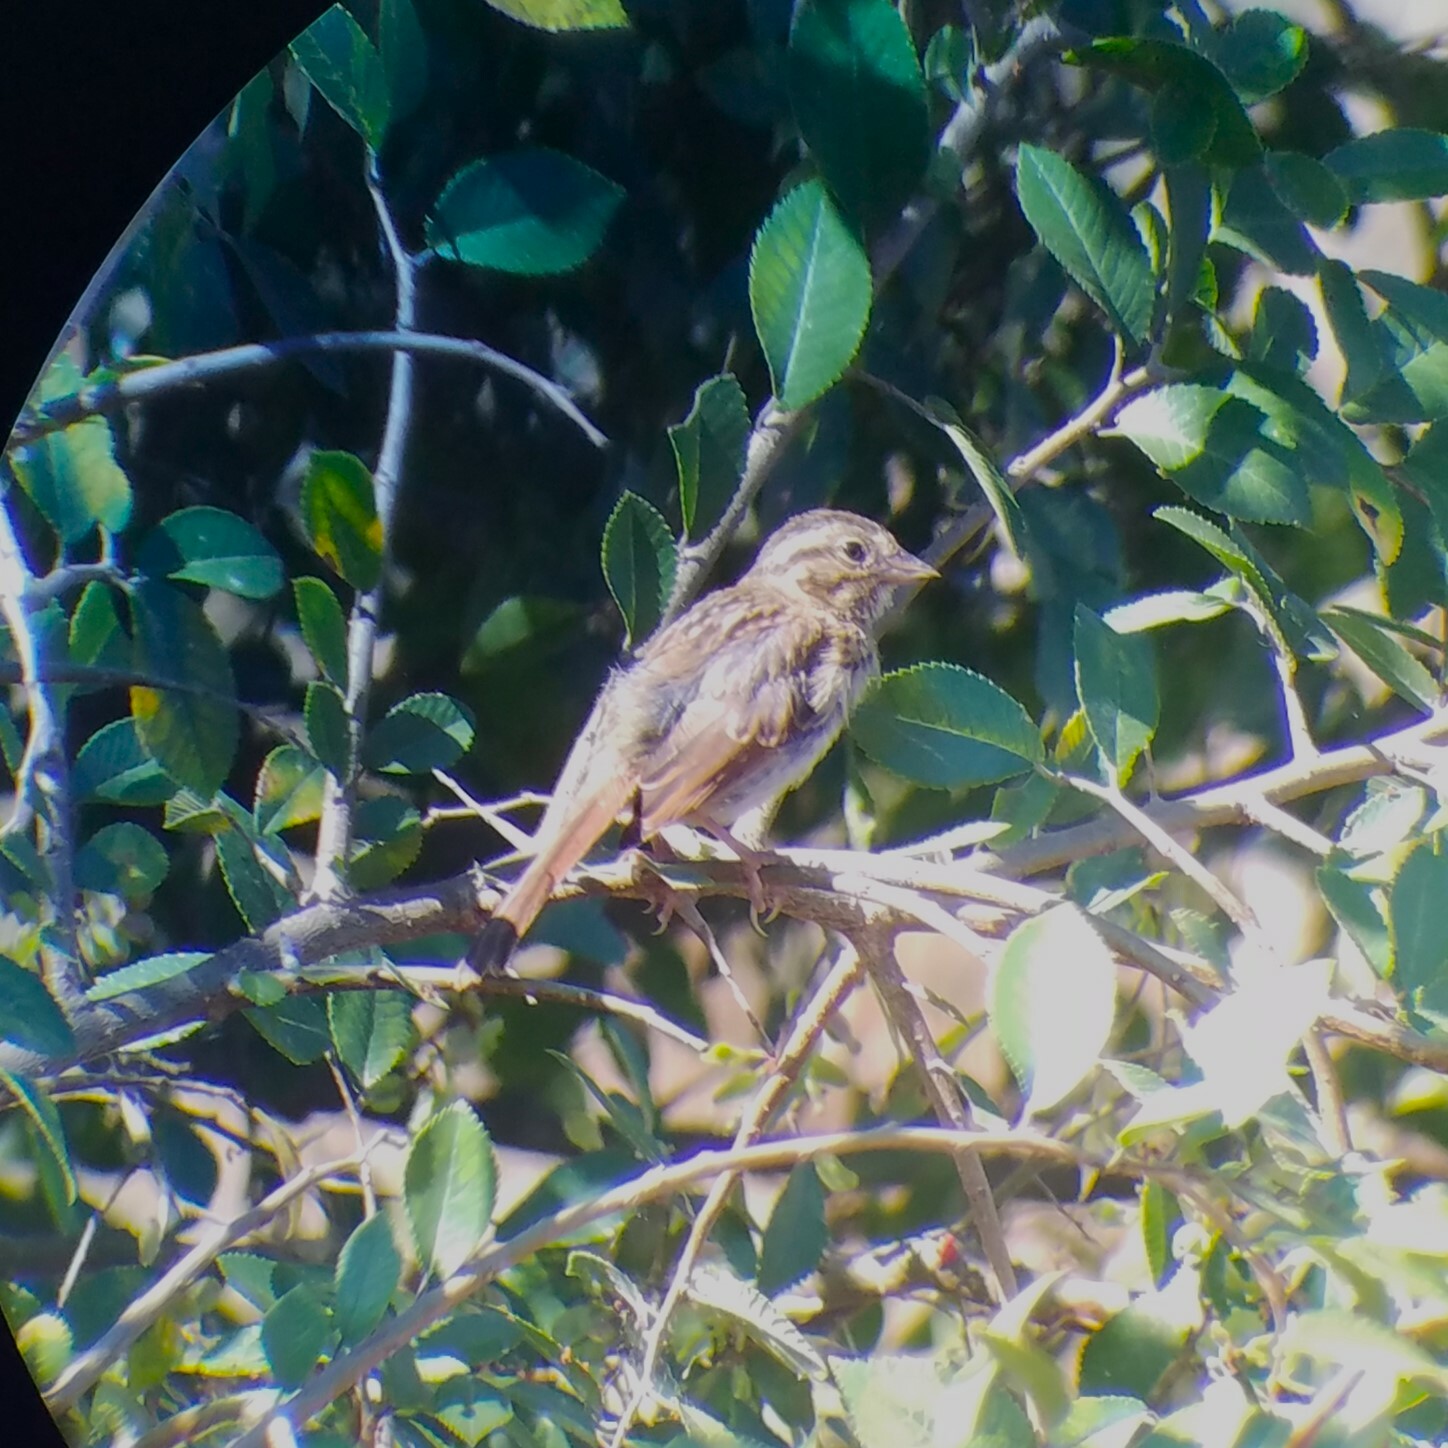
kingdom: Animalia
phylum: Chordata
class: Aves
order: Passeriformes
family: Passerellidae
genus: Melospiza
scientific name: Melospiza melodia
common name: Song sparrow
